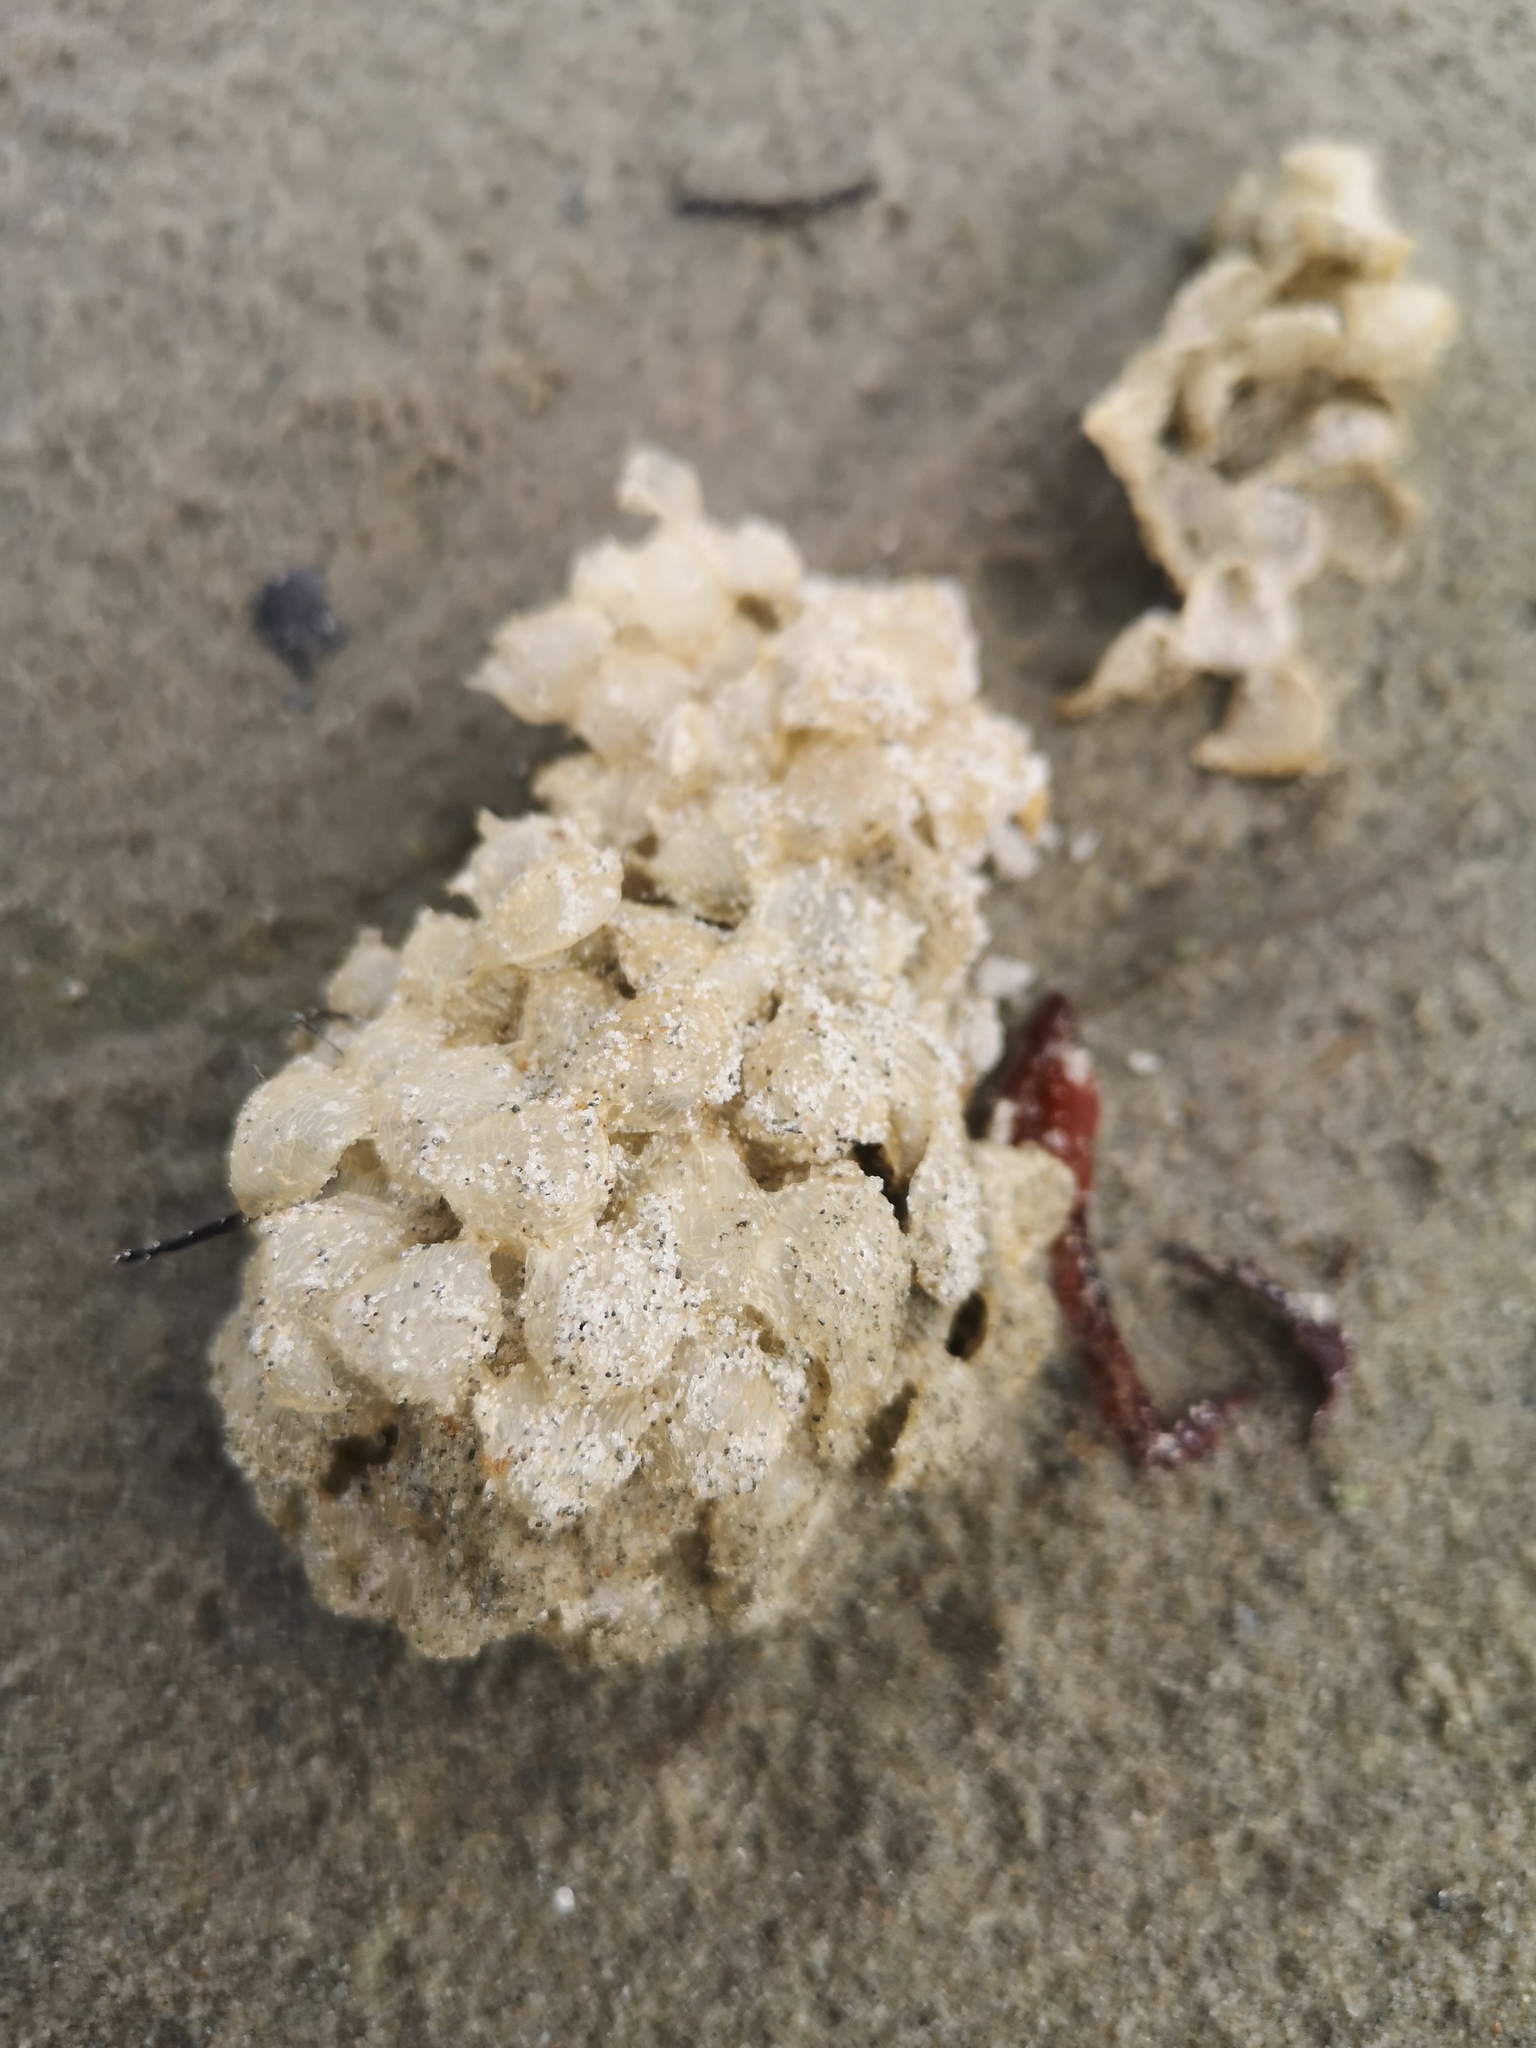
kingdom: Animalia
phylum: Mollusca
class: Gastropoda
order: Neogastropoda
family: Buccinidae
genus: Buccinum
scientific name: Buccinum undatum
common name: Common whelk
